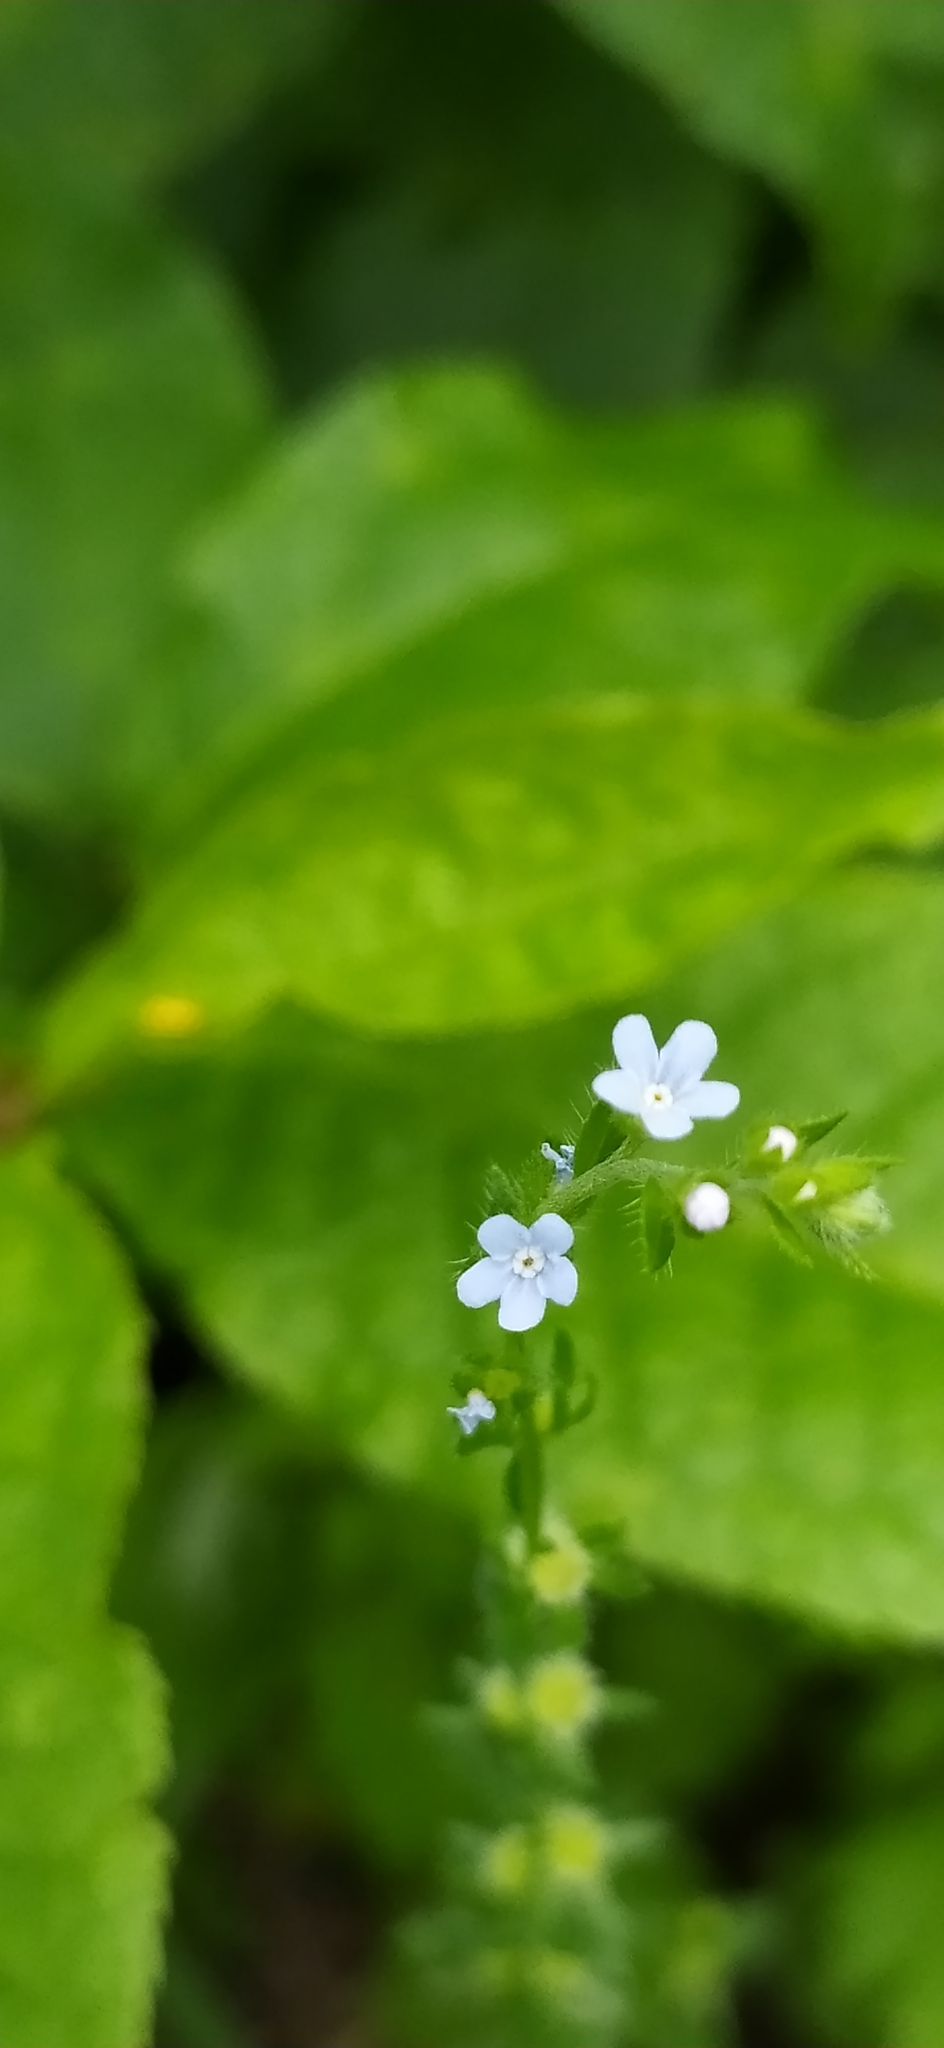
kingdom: Plantae
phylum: Tracheophyta
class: Magnoliopsida
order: Boraginales
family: Boraginaceae
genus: Lappula
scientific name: Lappula squarrosa
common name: European stickseed
